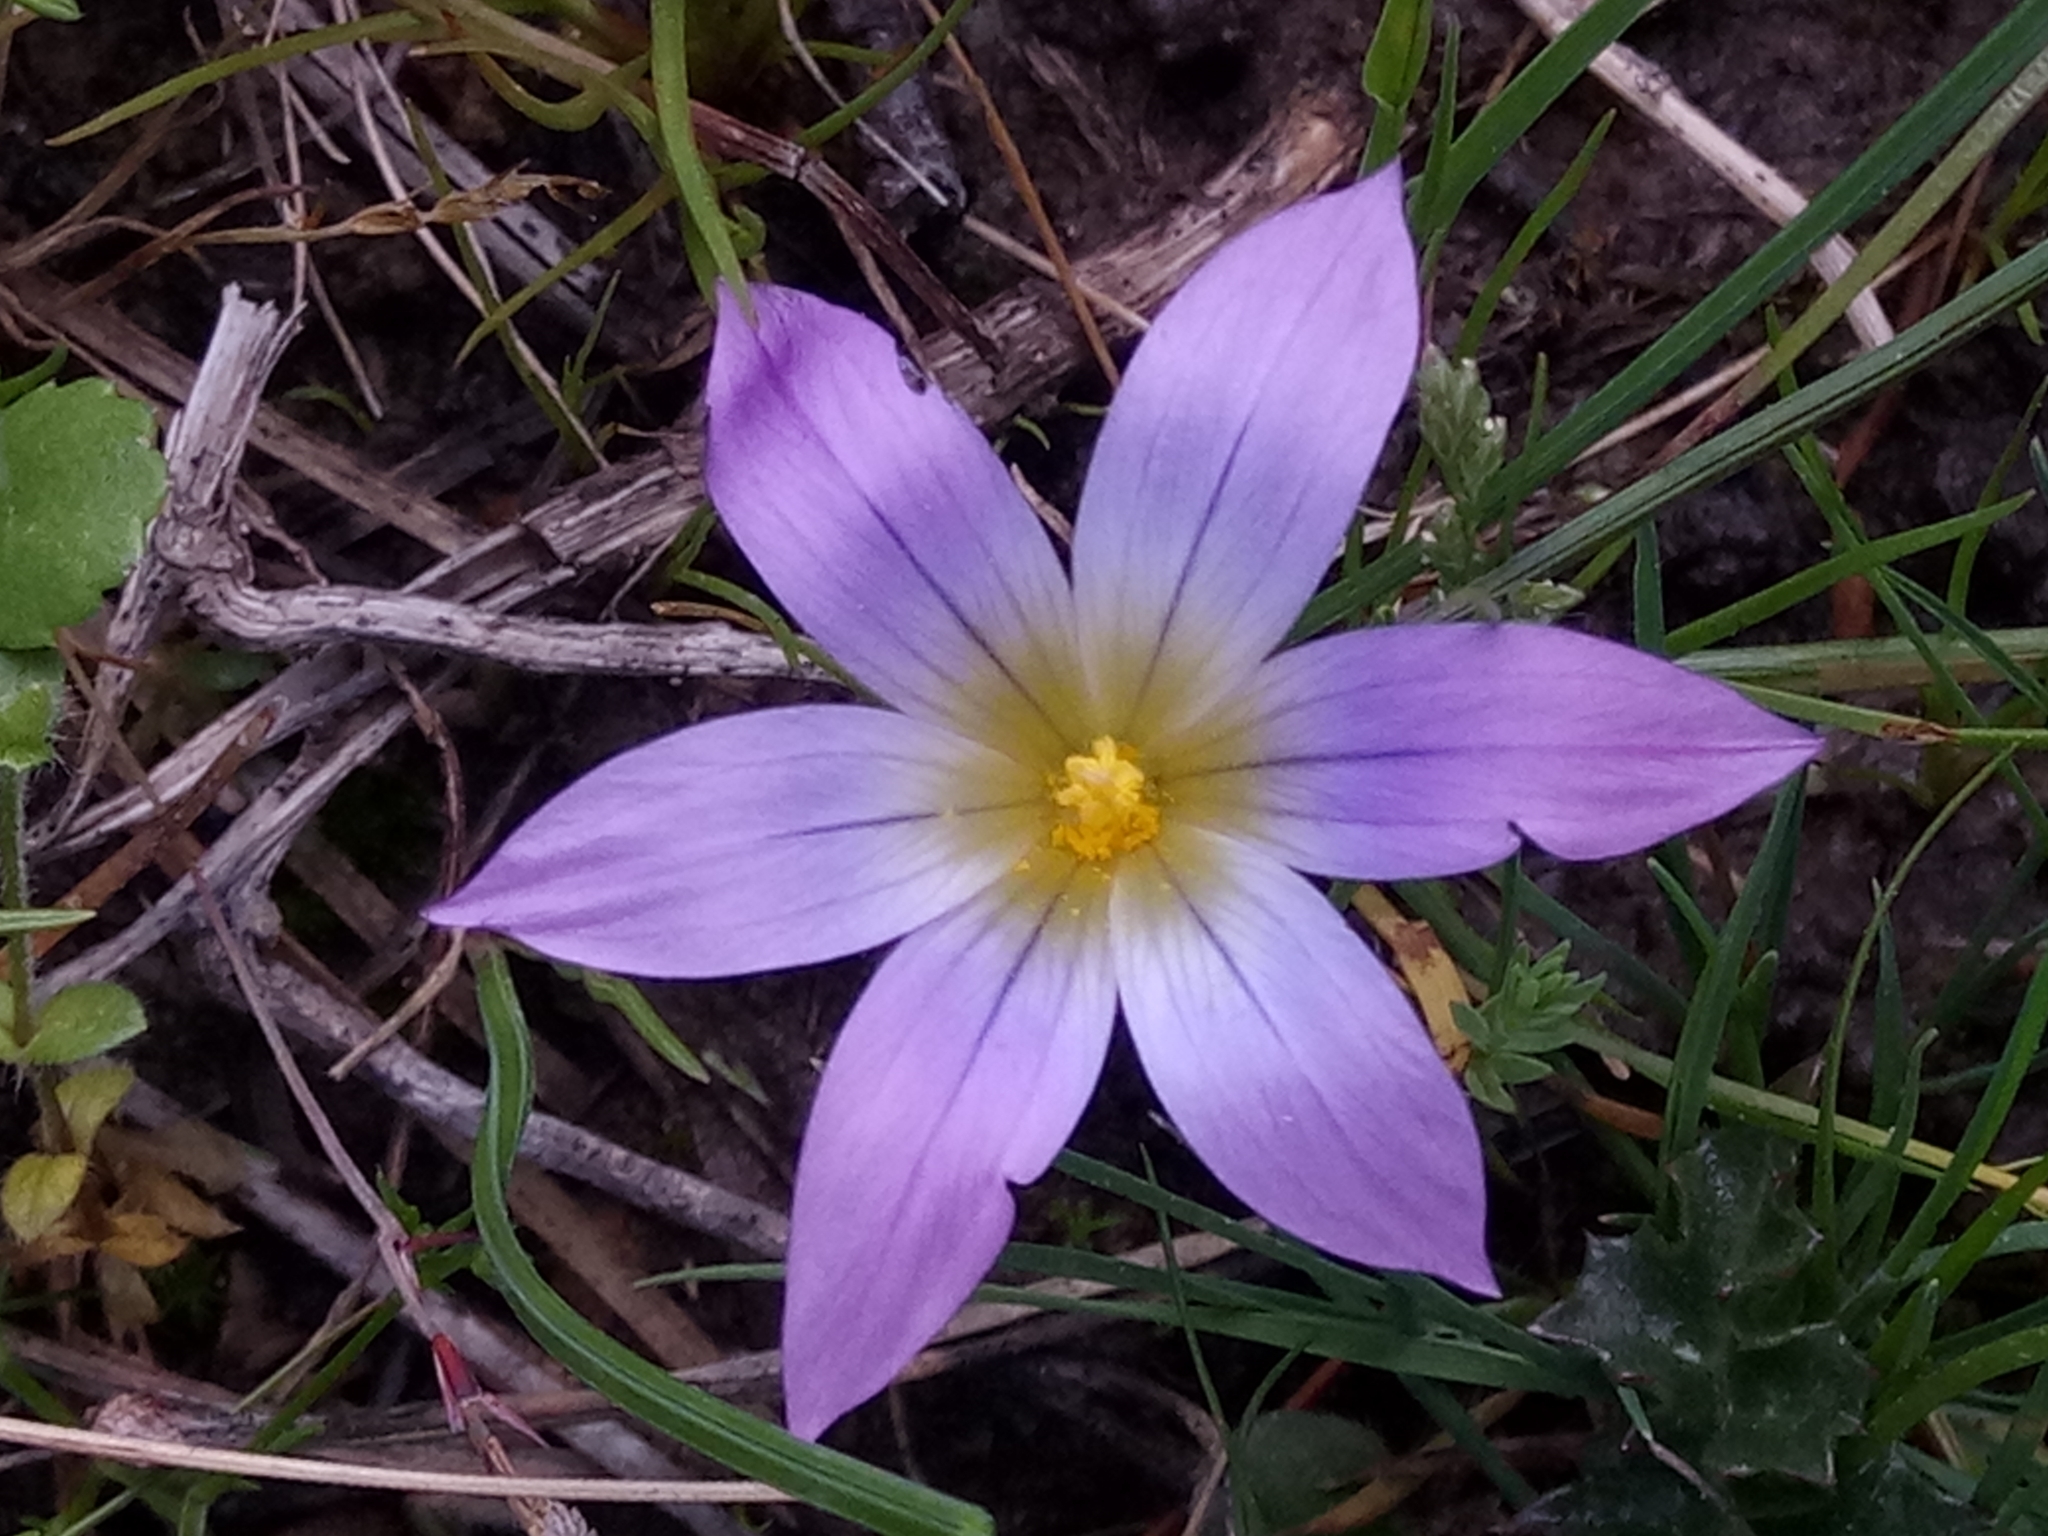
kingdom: Plantae
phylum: Tracheophyta
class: Liliopsida
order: Asparagales
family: Iridaceae
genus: Romulea
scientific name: Romulea bulbocodium
